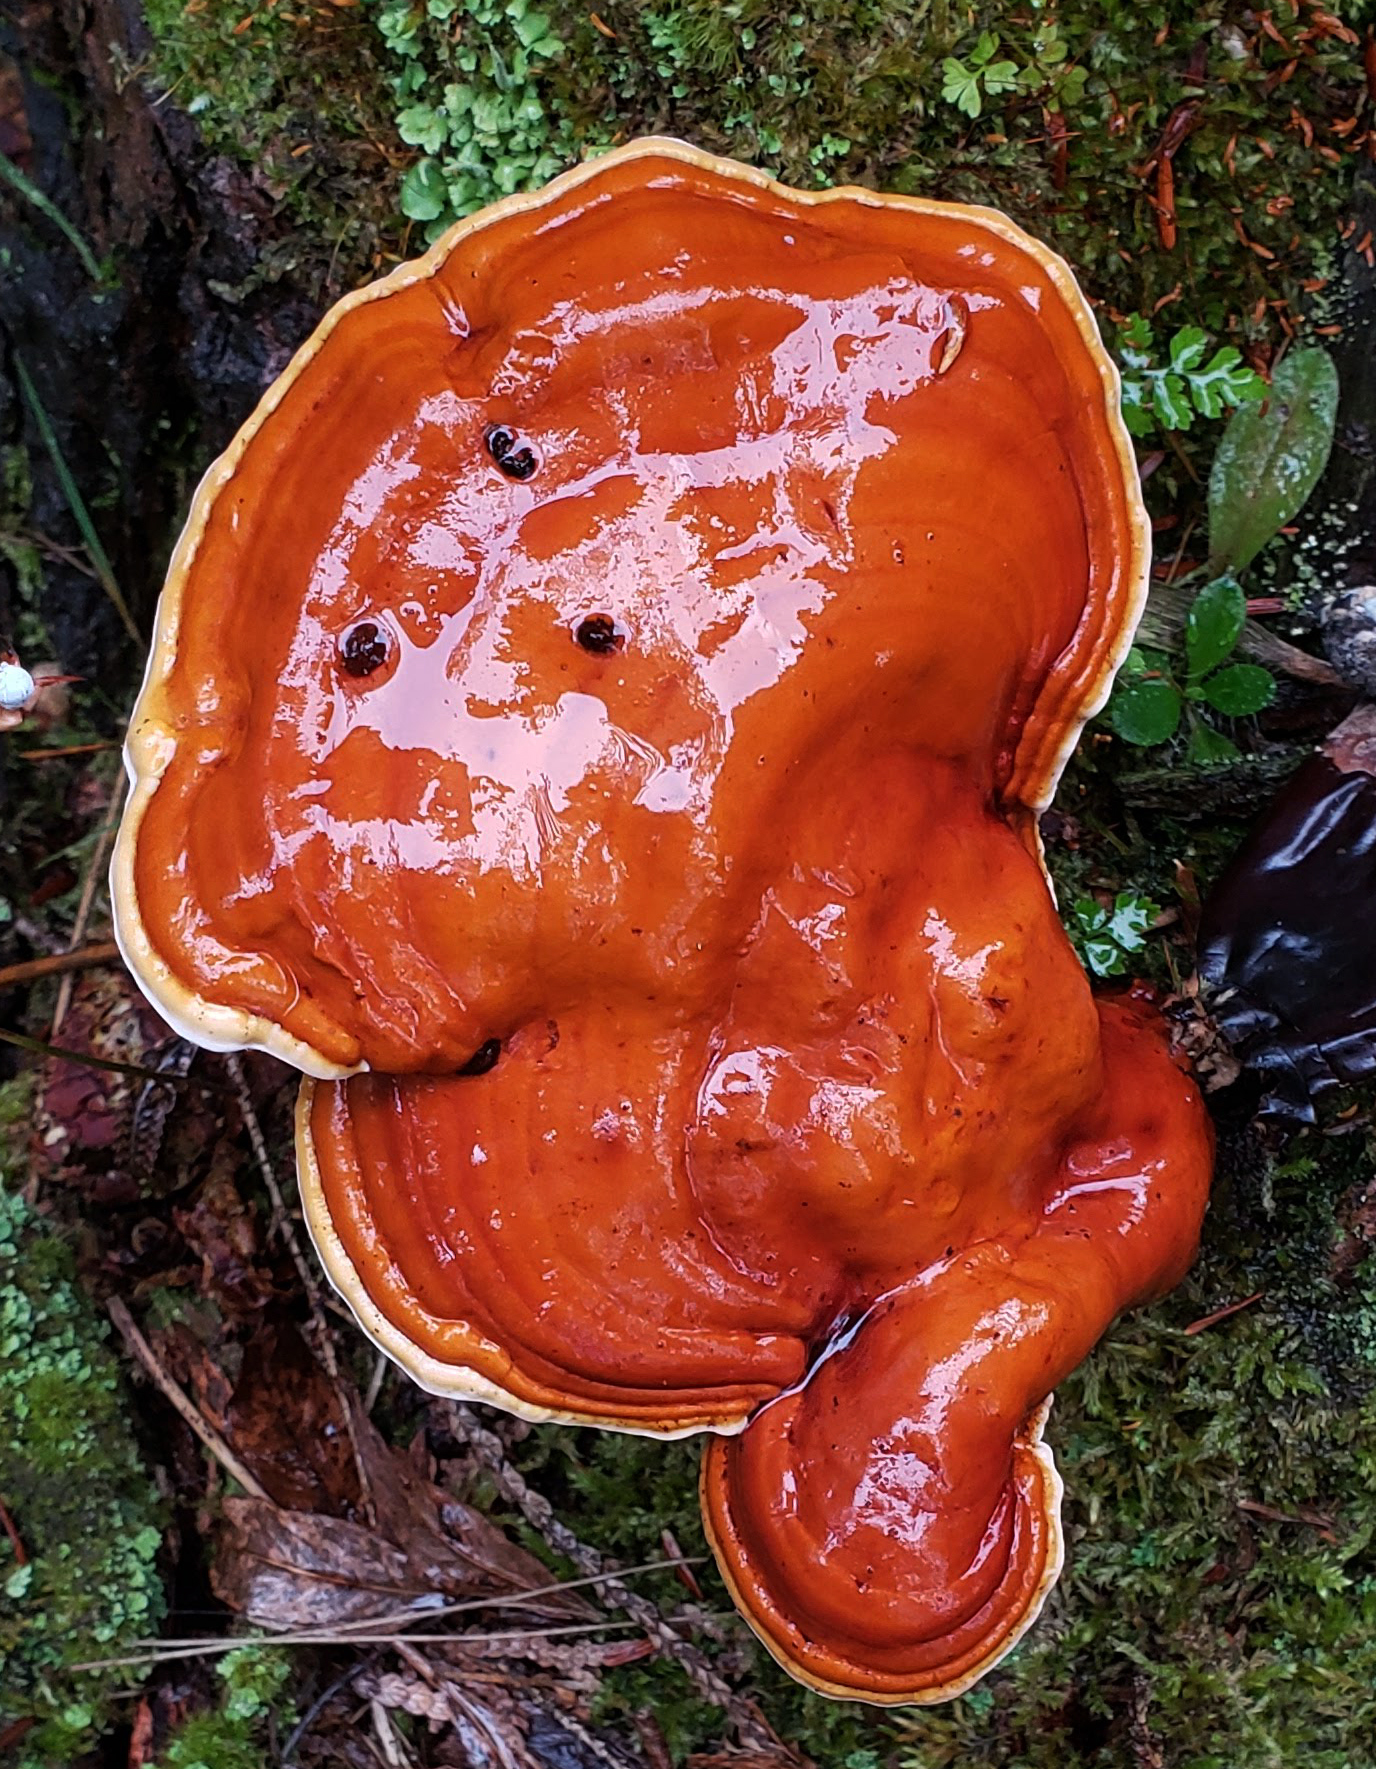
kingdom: Fungi
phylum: Basidiomycota
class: Agaricomycetes
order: Polyporales
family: Polyporaceae
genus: Ganoderma
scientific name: Ganoderma tsugae
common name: Hemlock varnish shelf
